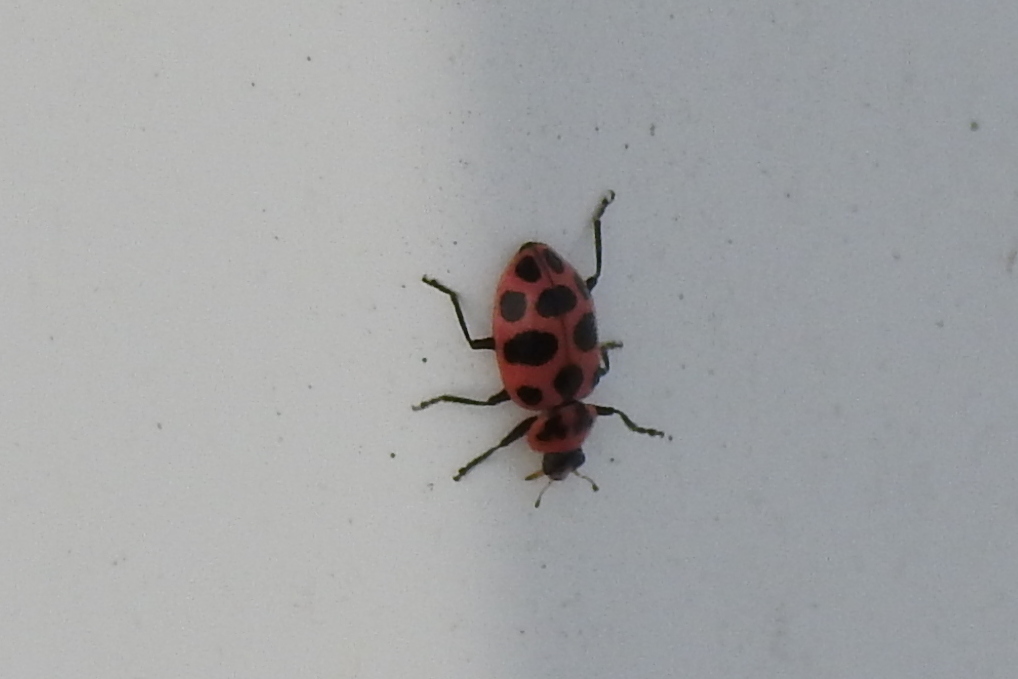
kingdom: Animalia
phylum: Arthropoda
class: Insecta
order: Coleoptera
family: Coccinellidae
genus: Coleomegilla
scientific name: Coleomegilla maculata
